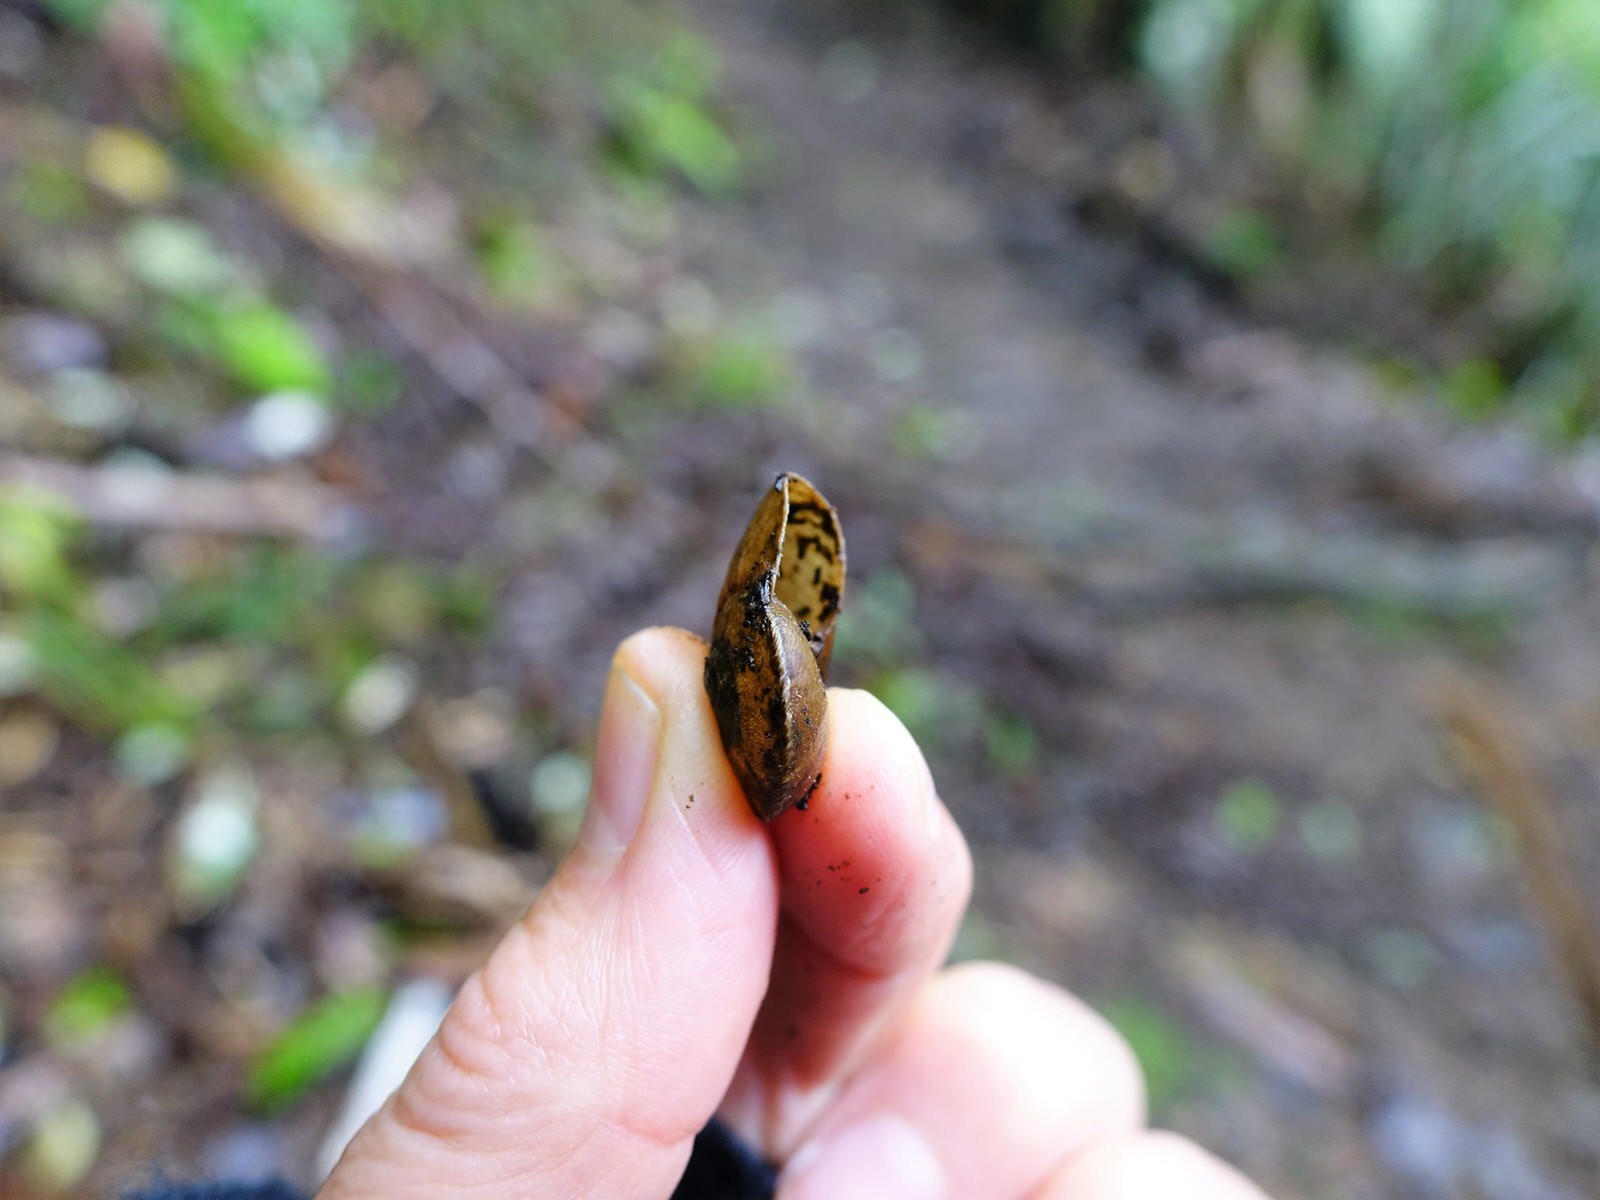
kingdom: Animalia
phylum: Mollusca
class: Gastropoda
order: Stylommatophora
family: Rhytididae
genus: Amborhytida
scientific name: Amborhytida dunniae
